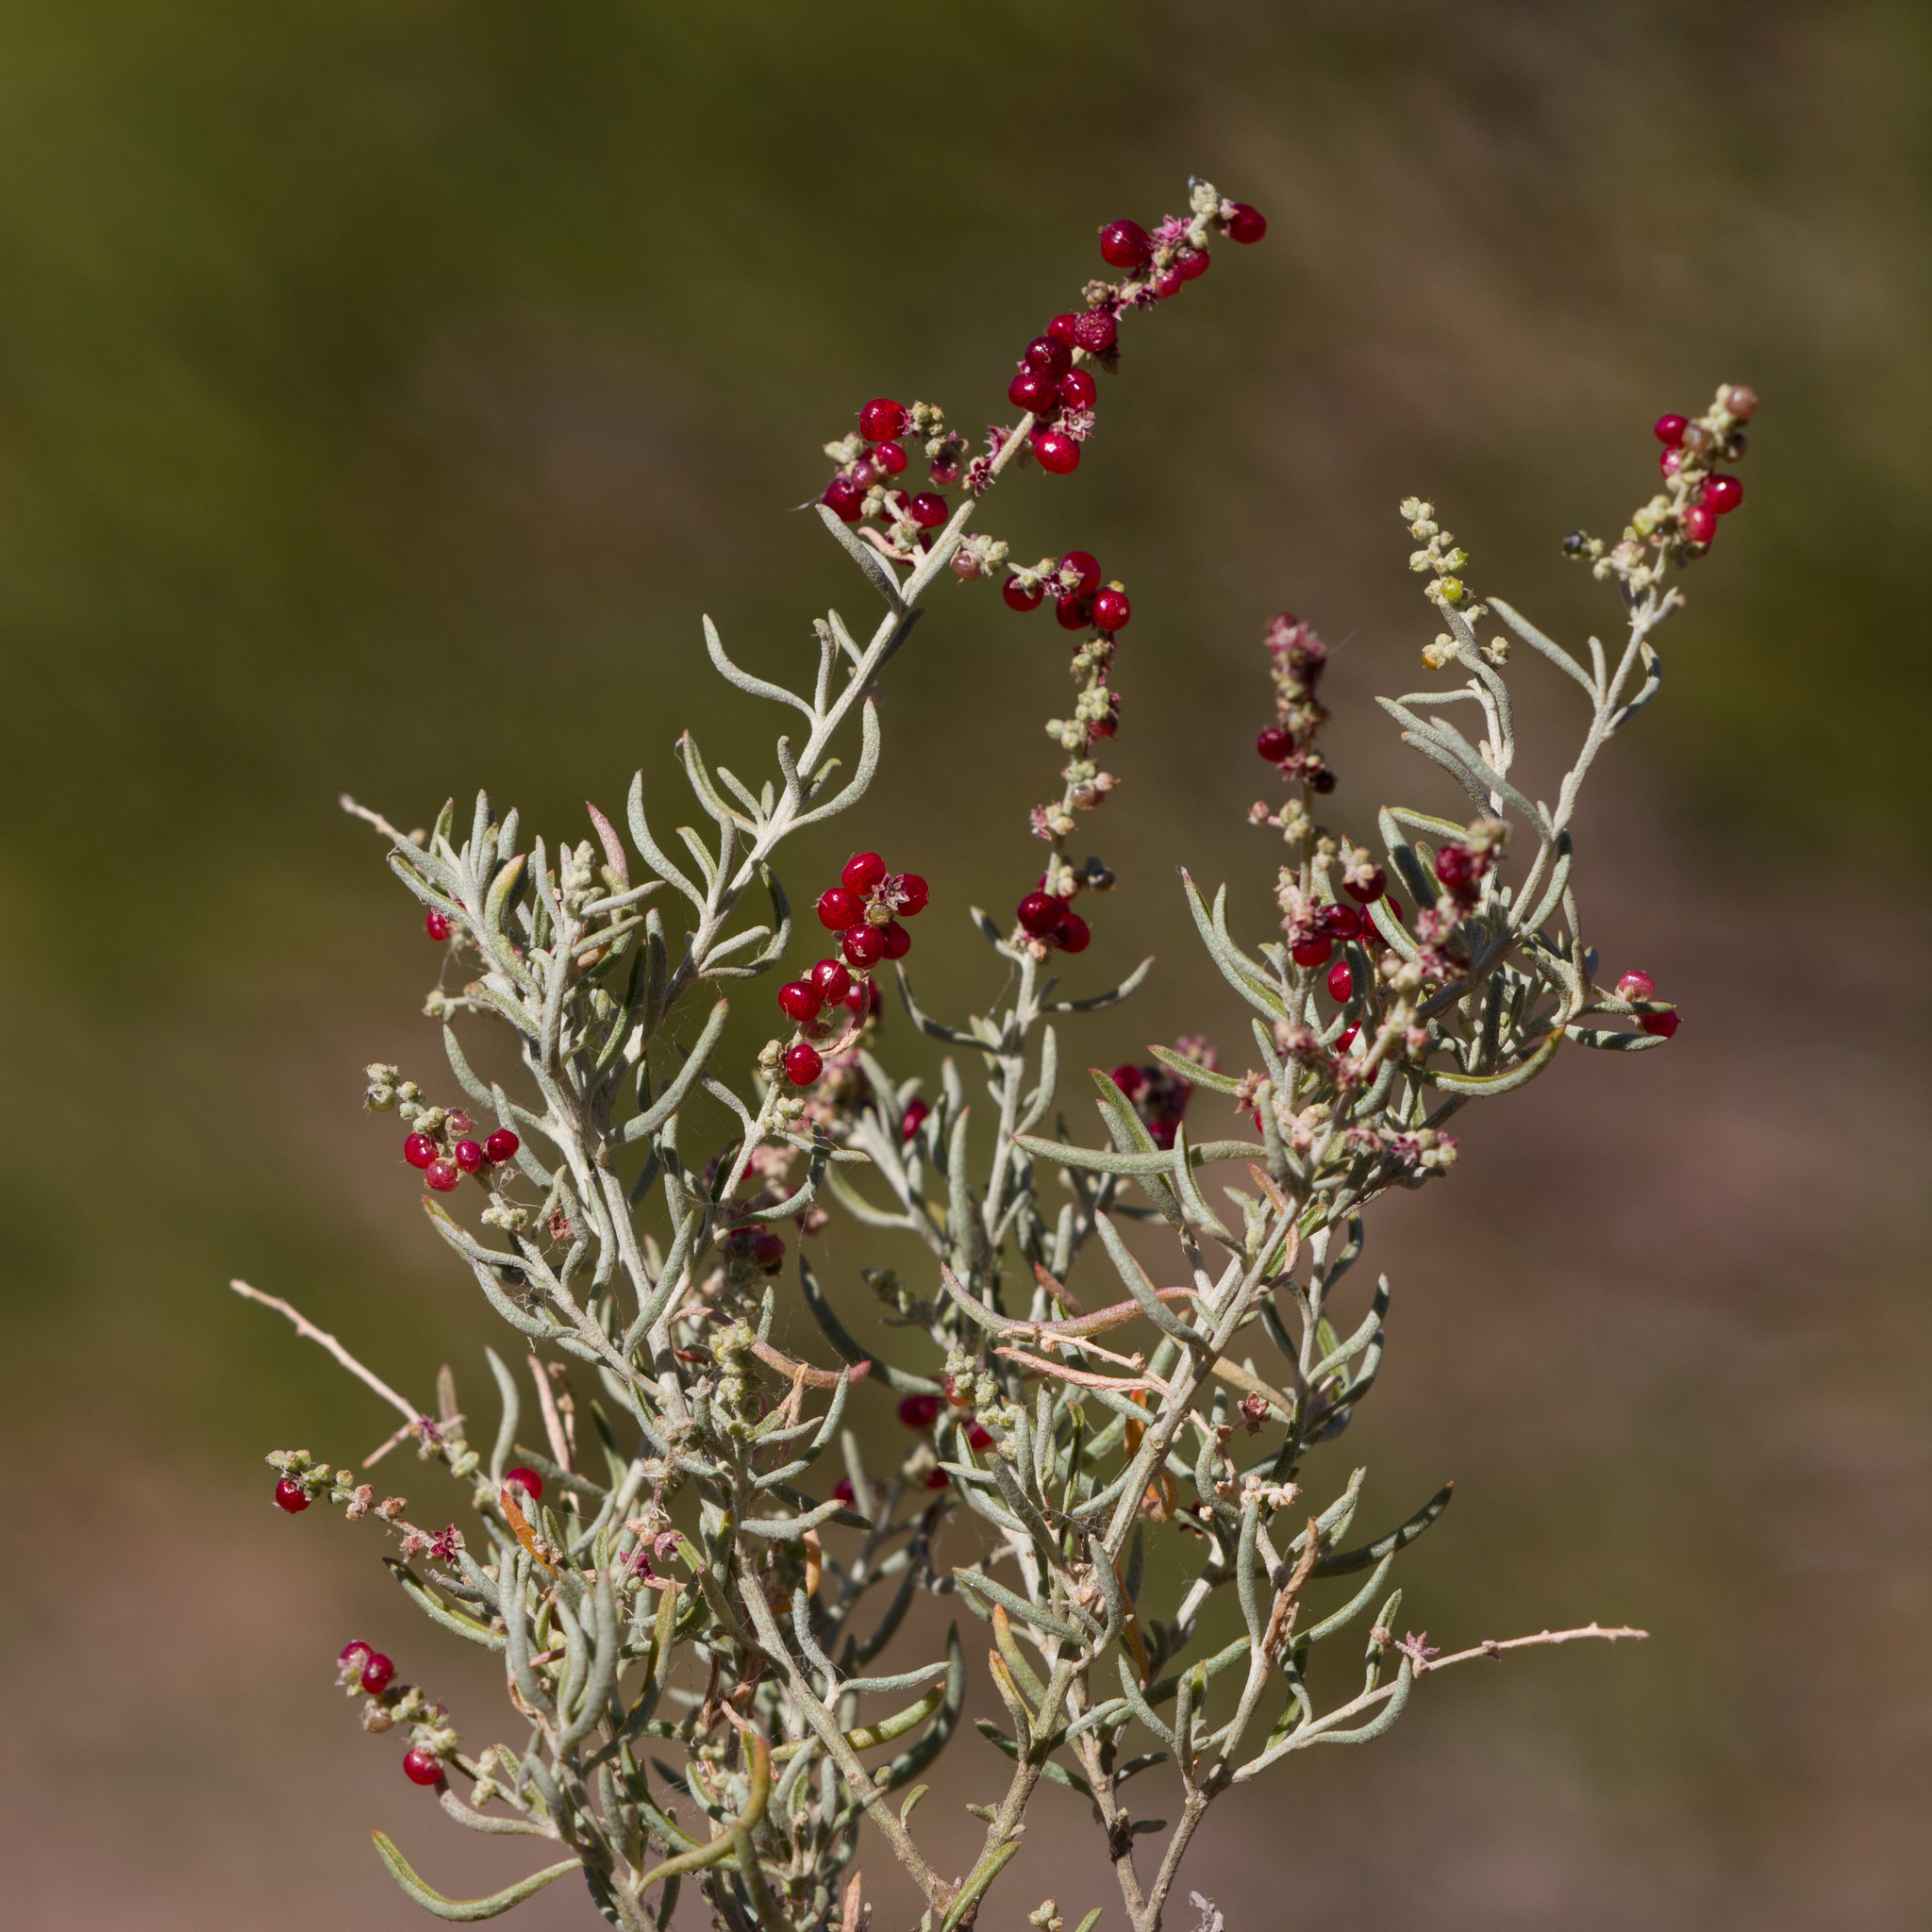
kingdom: Plantae
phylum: Tracheophyta
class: Magnoliopsida
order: Caryophyllales
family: Amaranthaceae
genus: Chenopodium
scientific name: Chenopodium wilsonii
